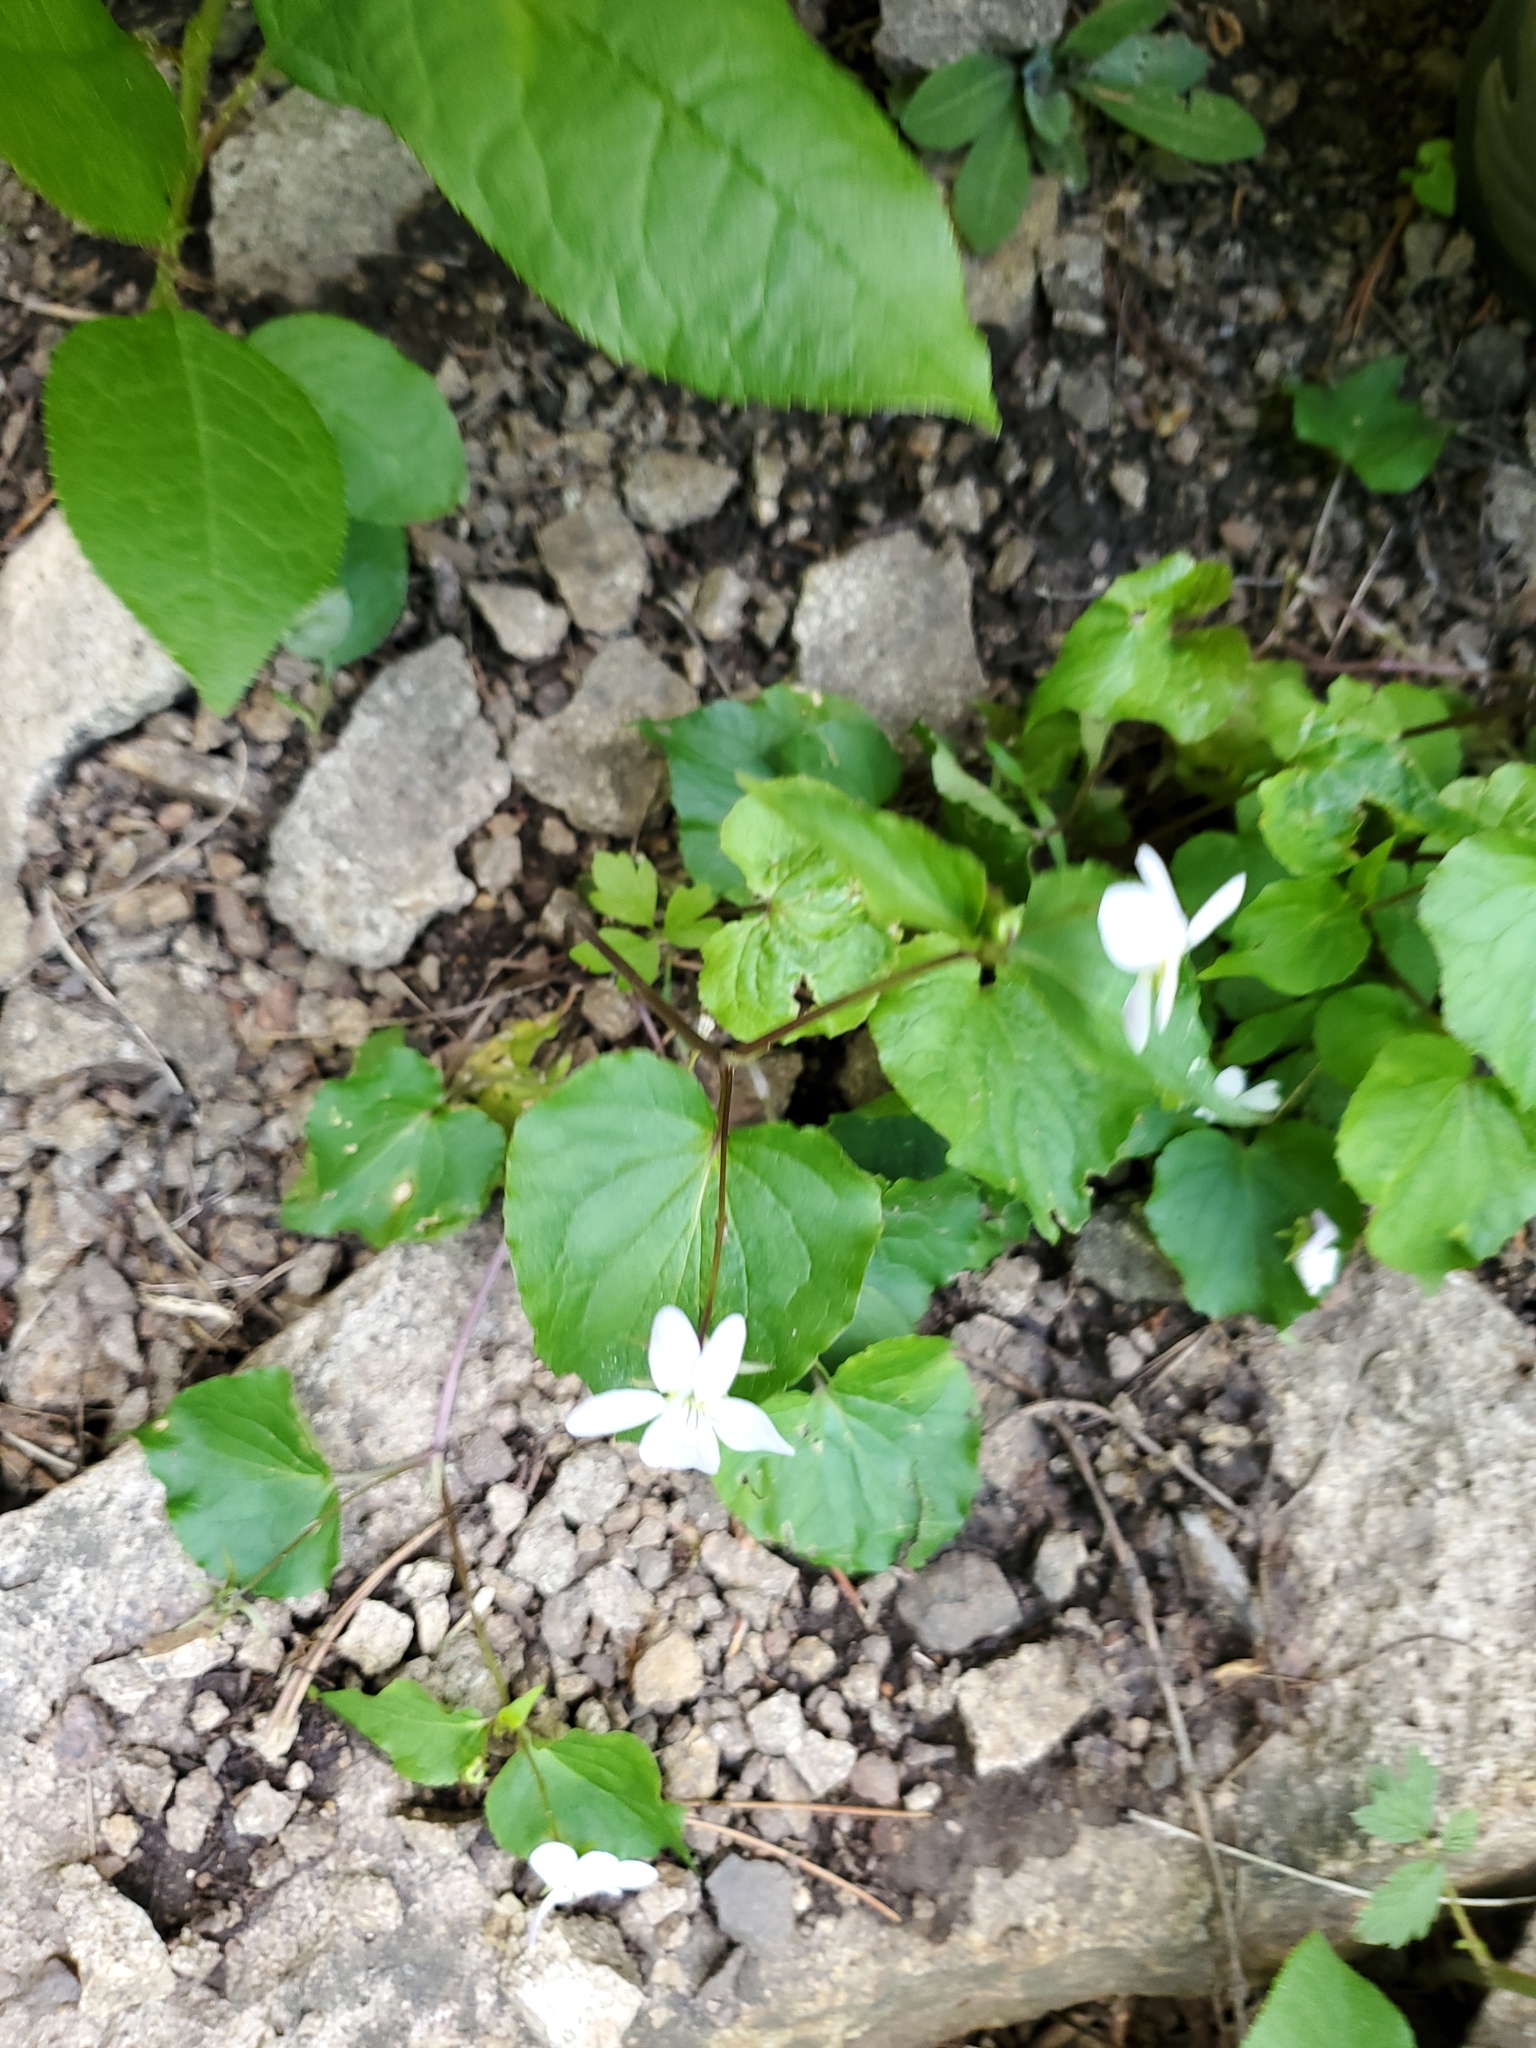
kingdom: Plantae
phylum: Tracheophyta
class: Magnoliopsida
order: Malpighiales
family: Violaceae
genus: Viola
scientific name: Viola canadensis
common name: Canada violet
